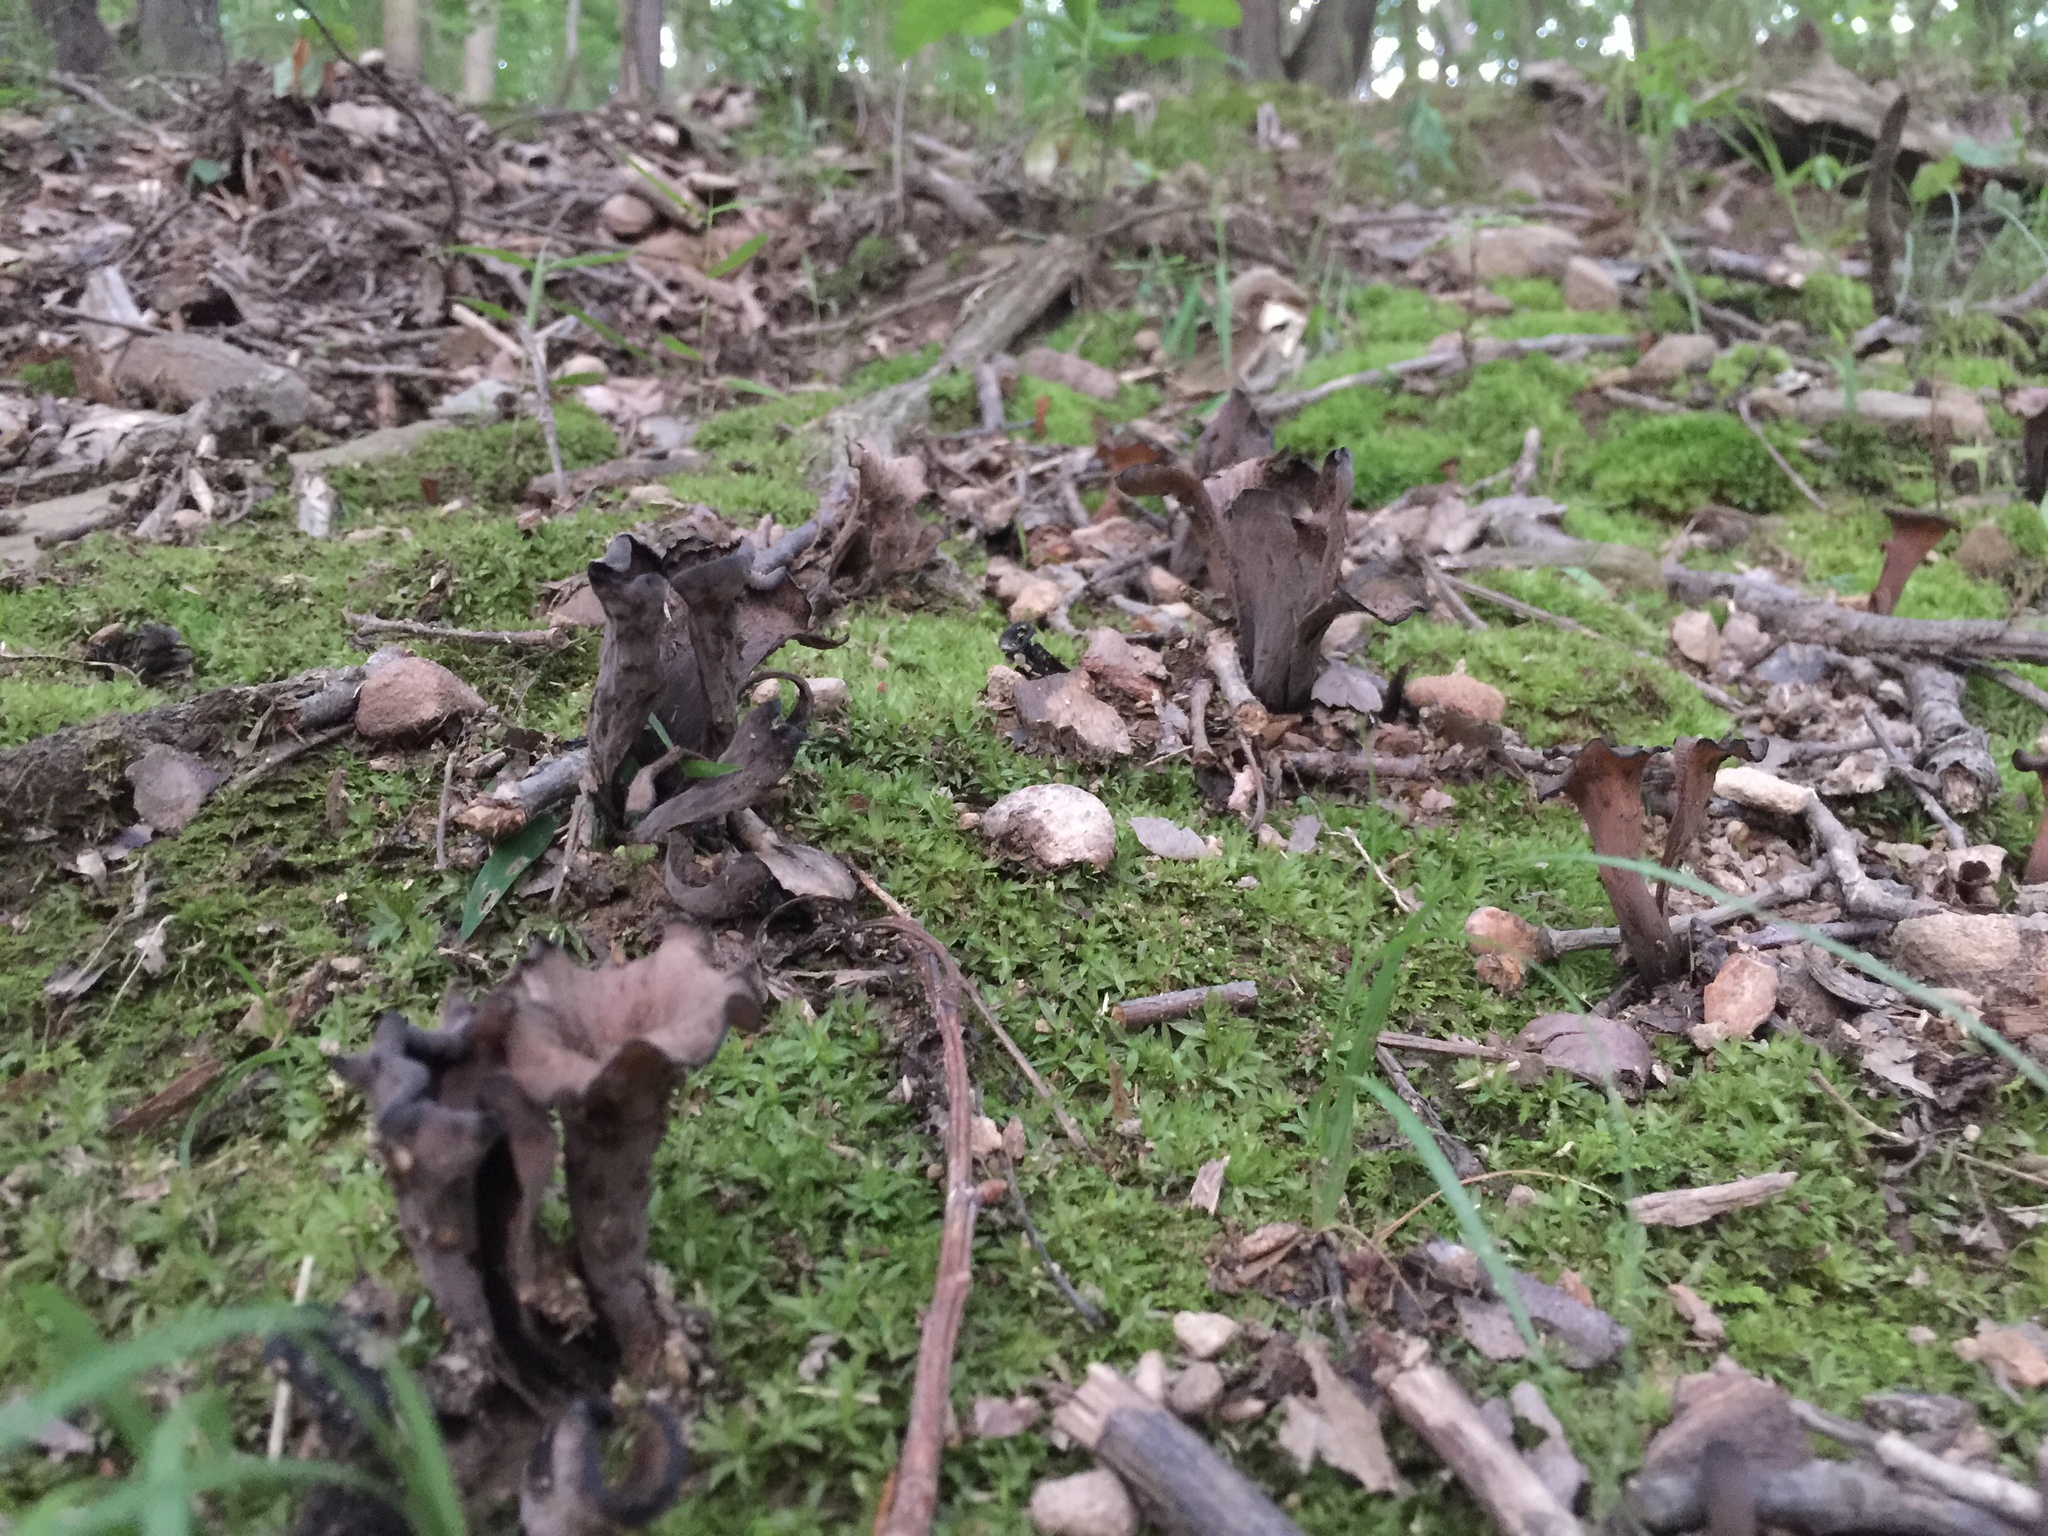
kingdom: Fungi
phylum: Basidiomycota
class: Agaricomycetes
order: Cantharellales
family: Hydnaceae
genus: Craterellus
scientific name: Craterellus cornucopioides
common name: Horn of plenty
